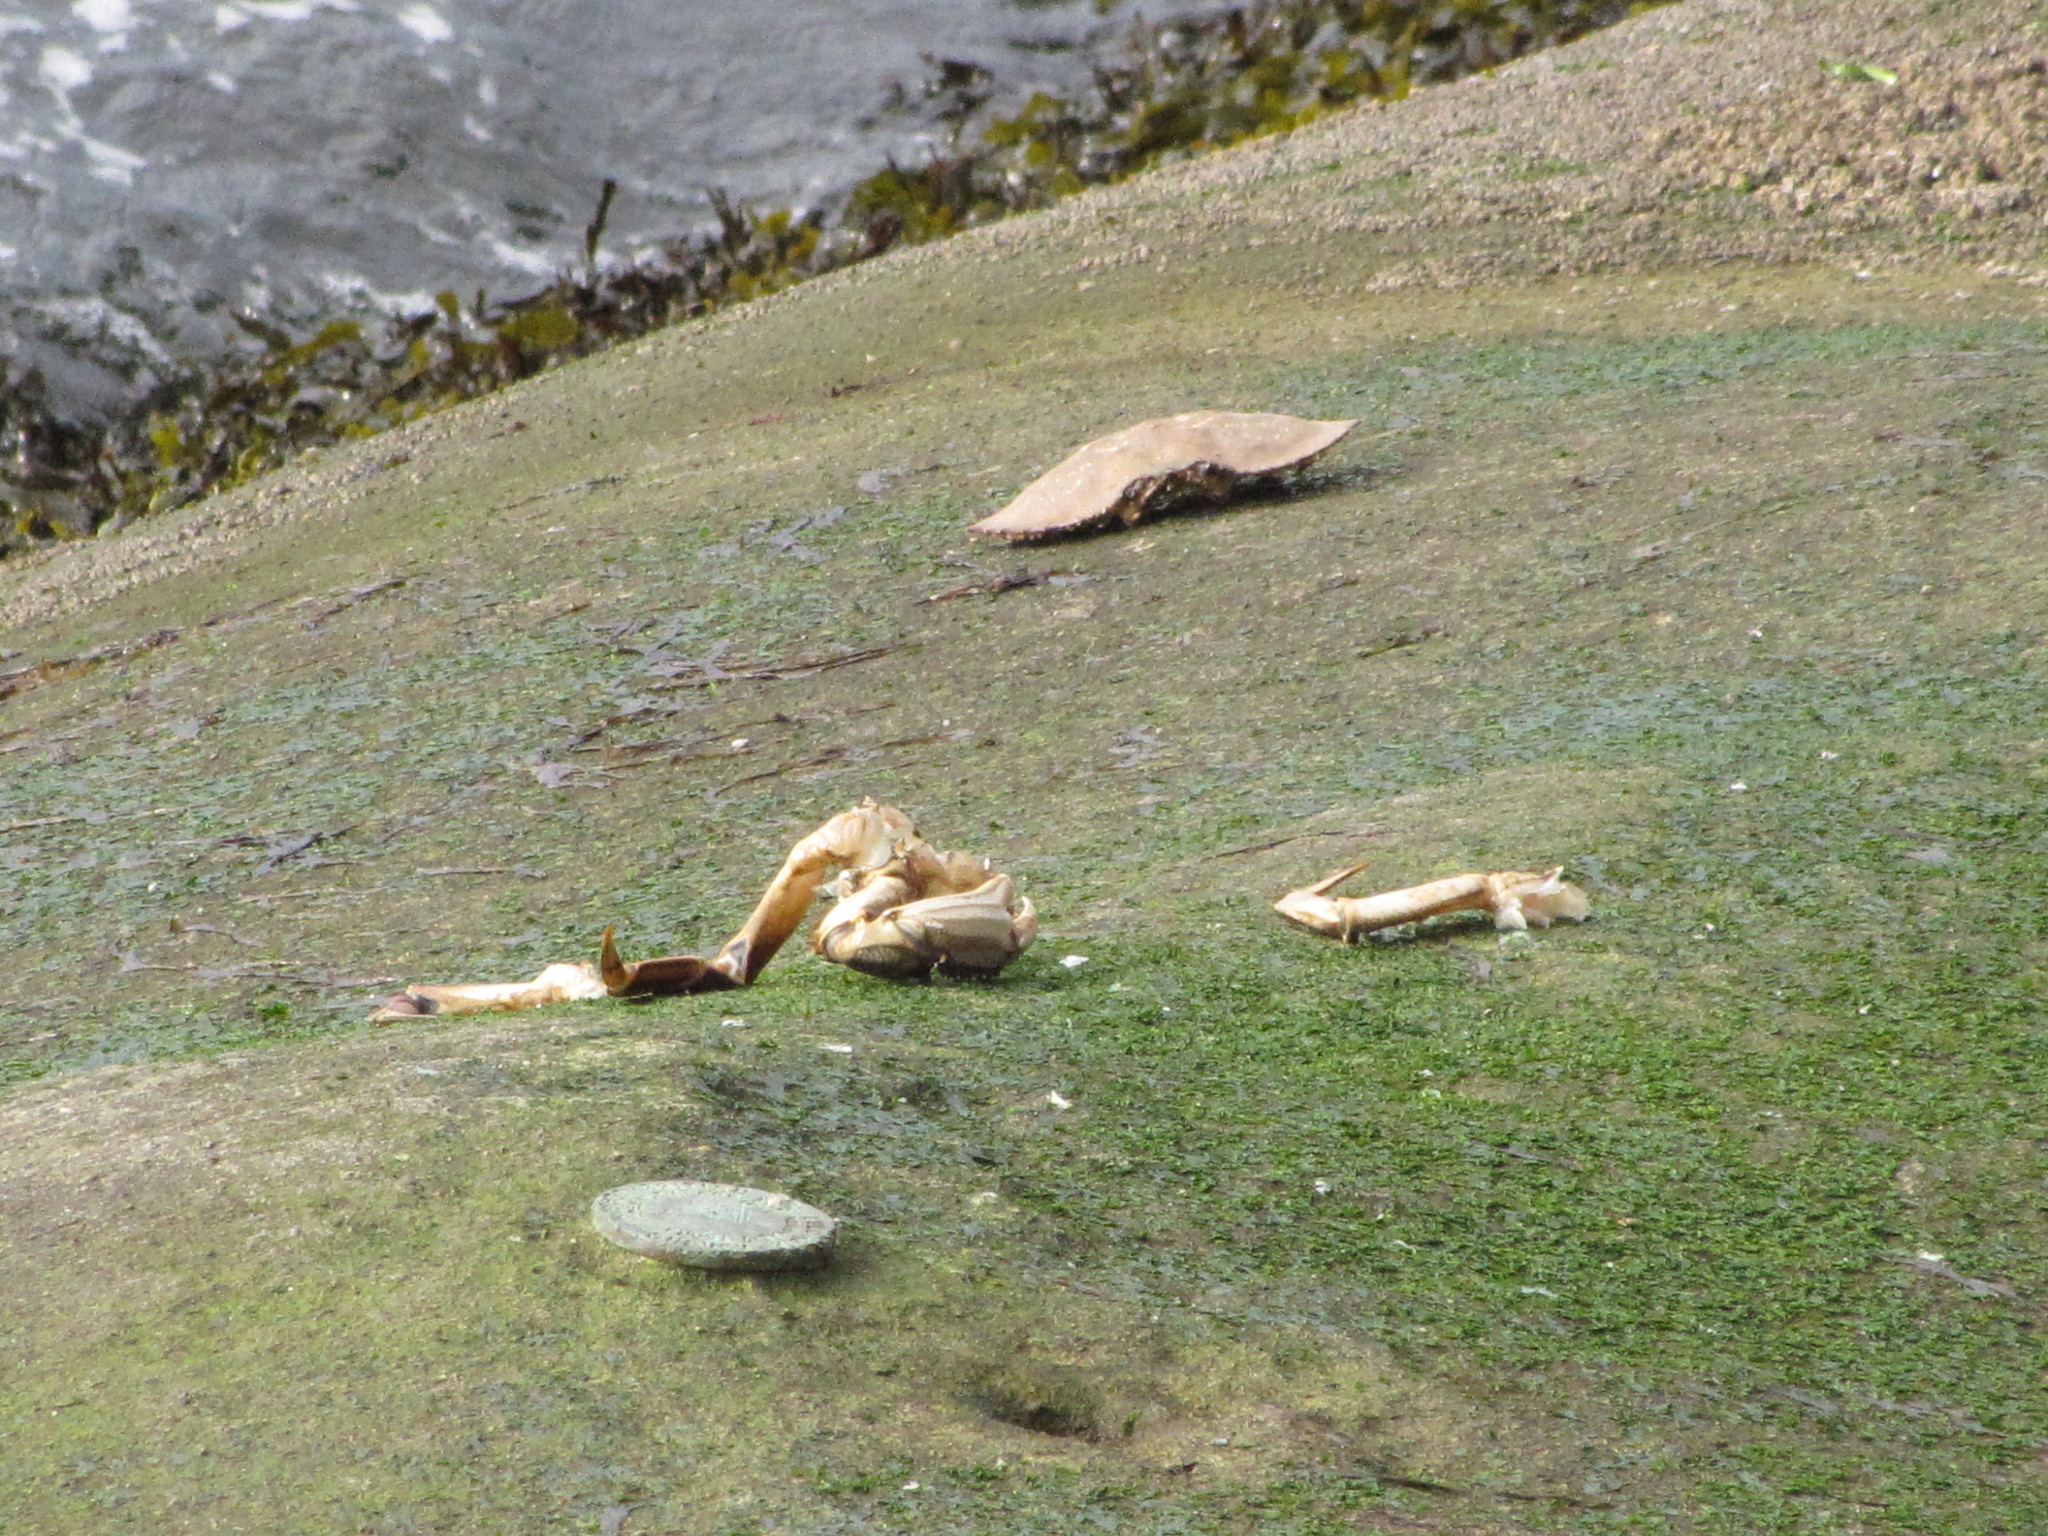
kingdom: Animalia
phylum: Arthropoda
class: Malacostraca
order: Decapoda
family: Cancridae
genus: Metacarcinus
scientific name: Metacarcinus magister
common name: Californian crab
